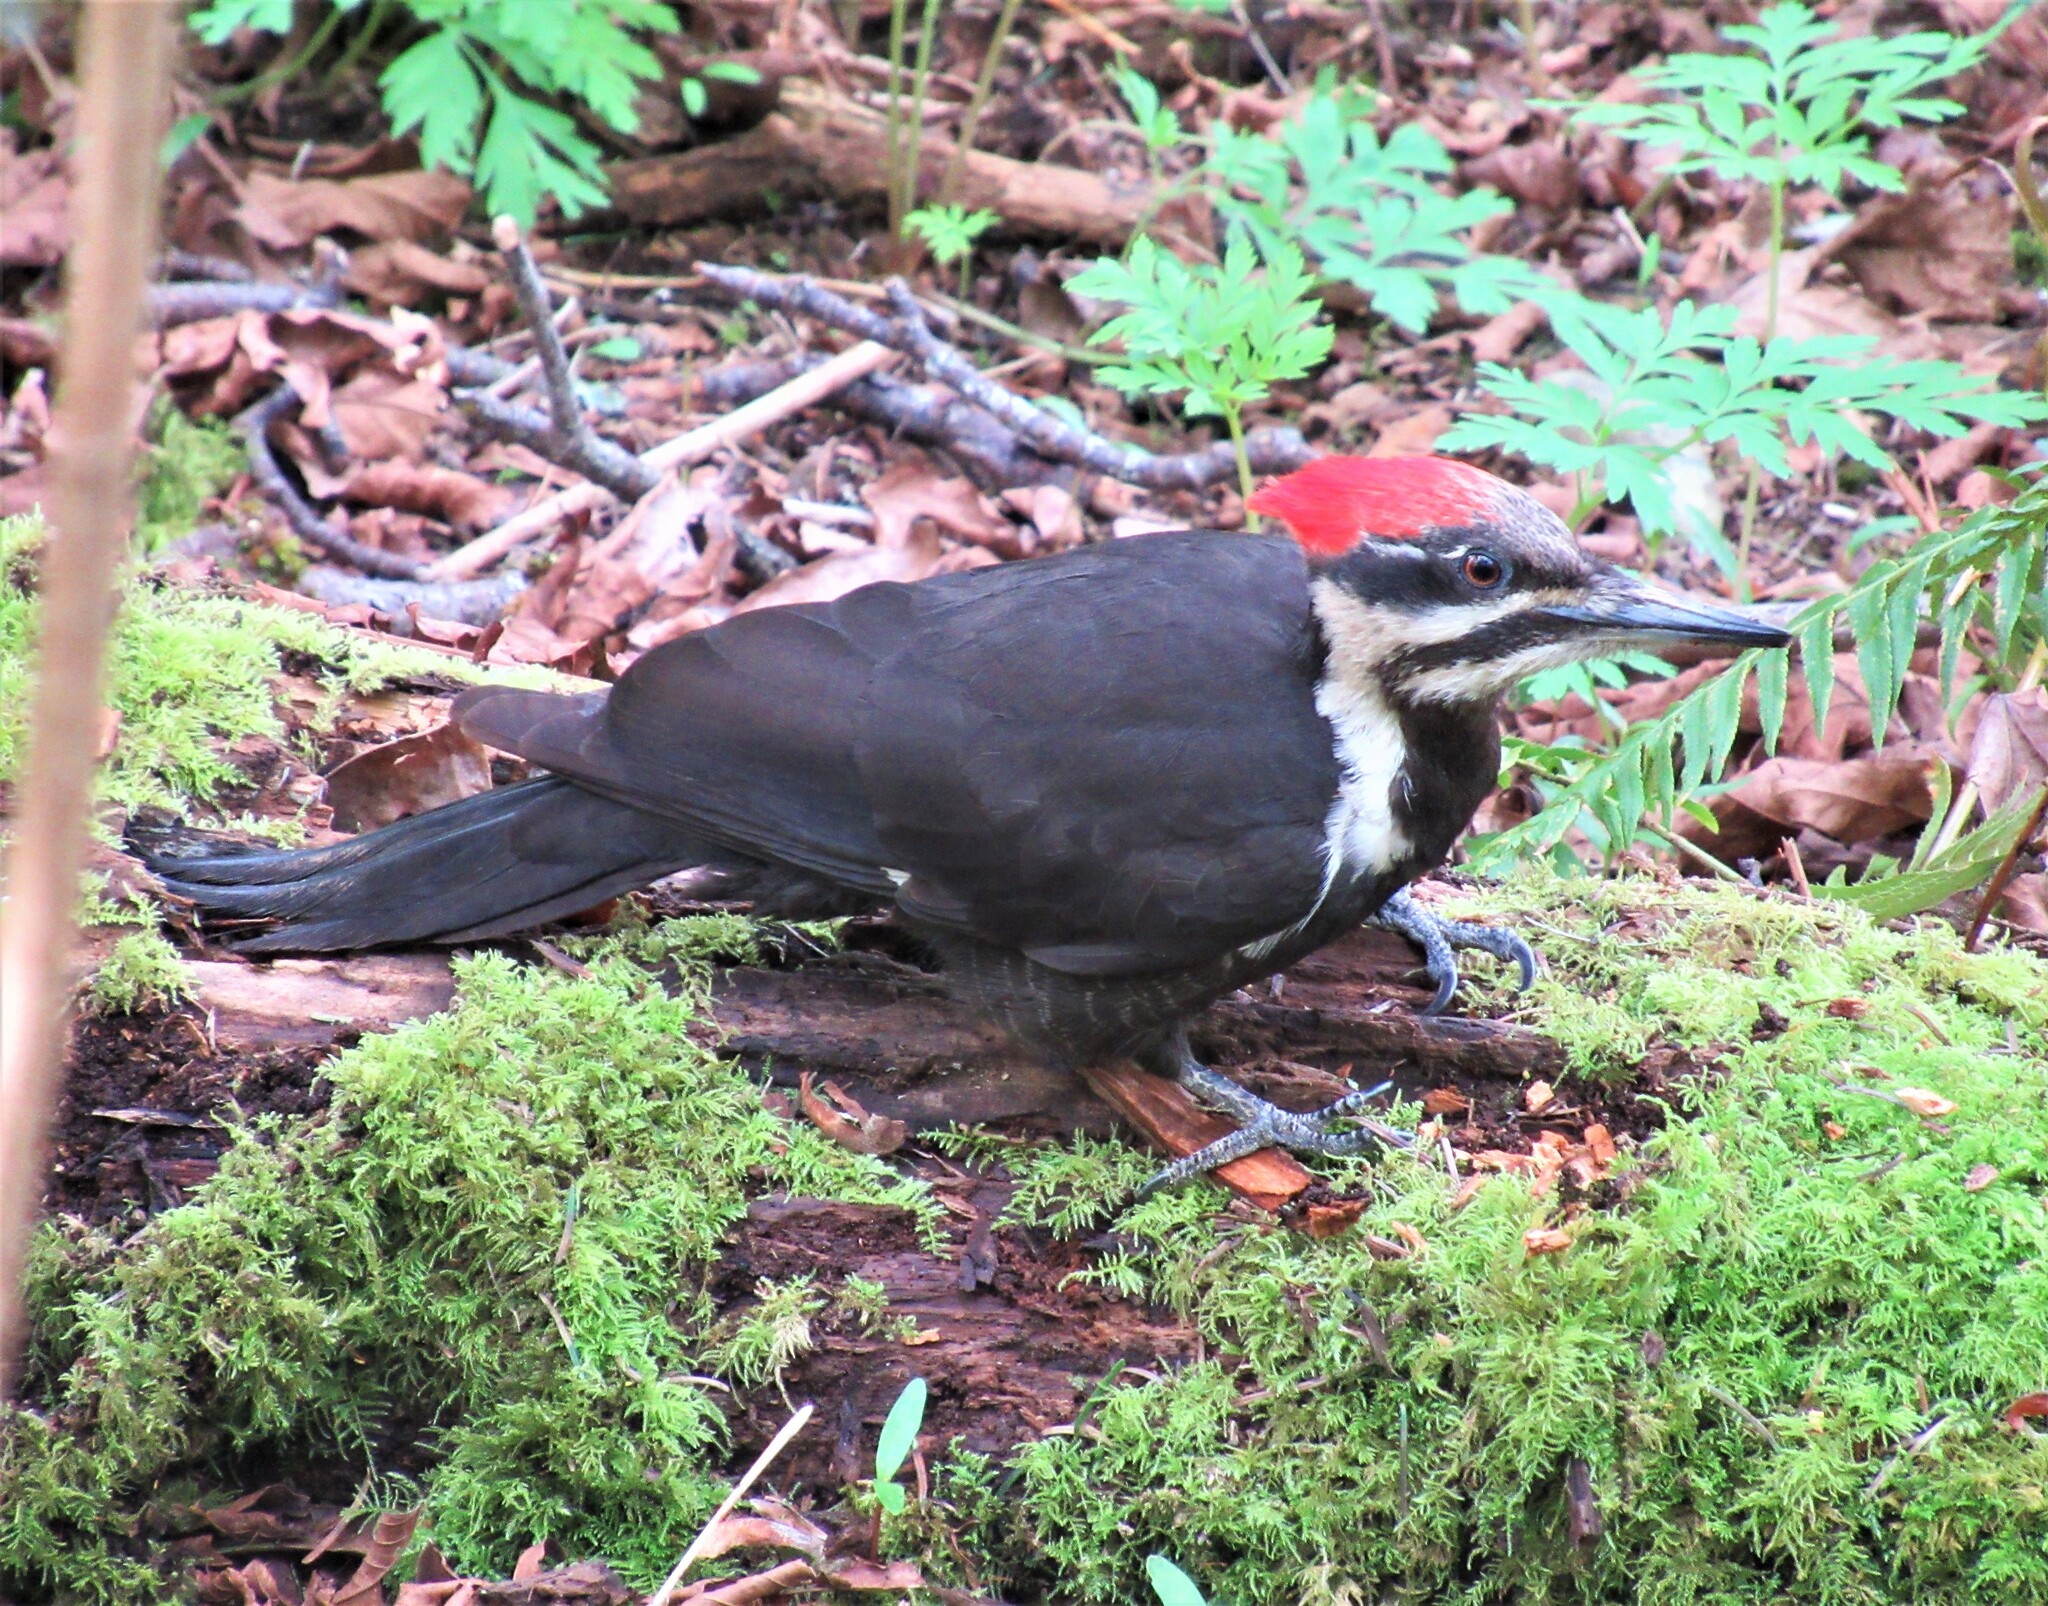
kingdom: Animalia
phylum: Chordata
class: Aves
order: Piciformes
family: Picidae
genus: Dryocopus
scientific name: Dryocopus pileatus
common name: Pileated woodpecker
